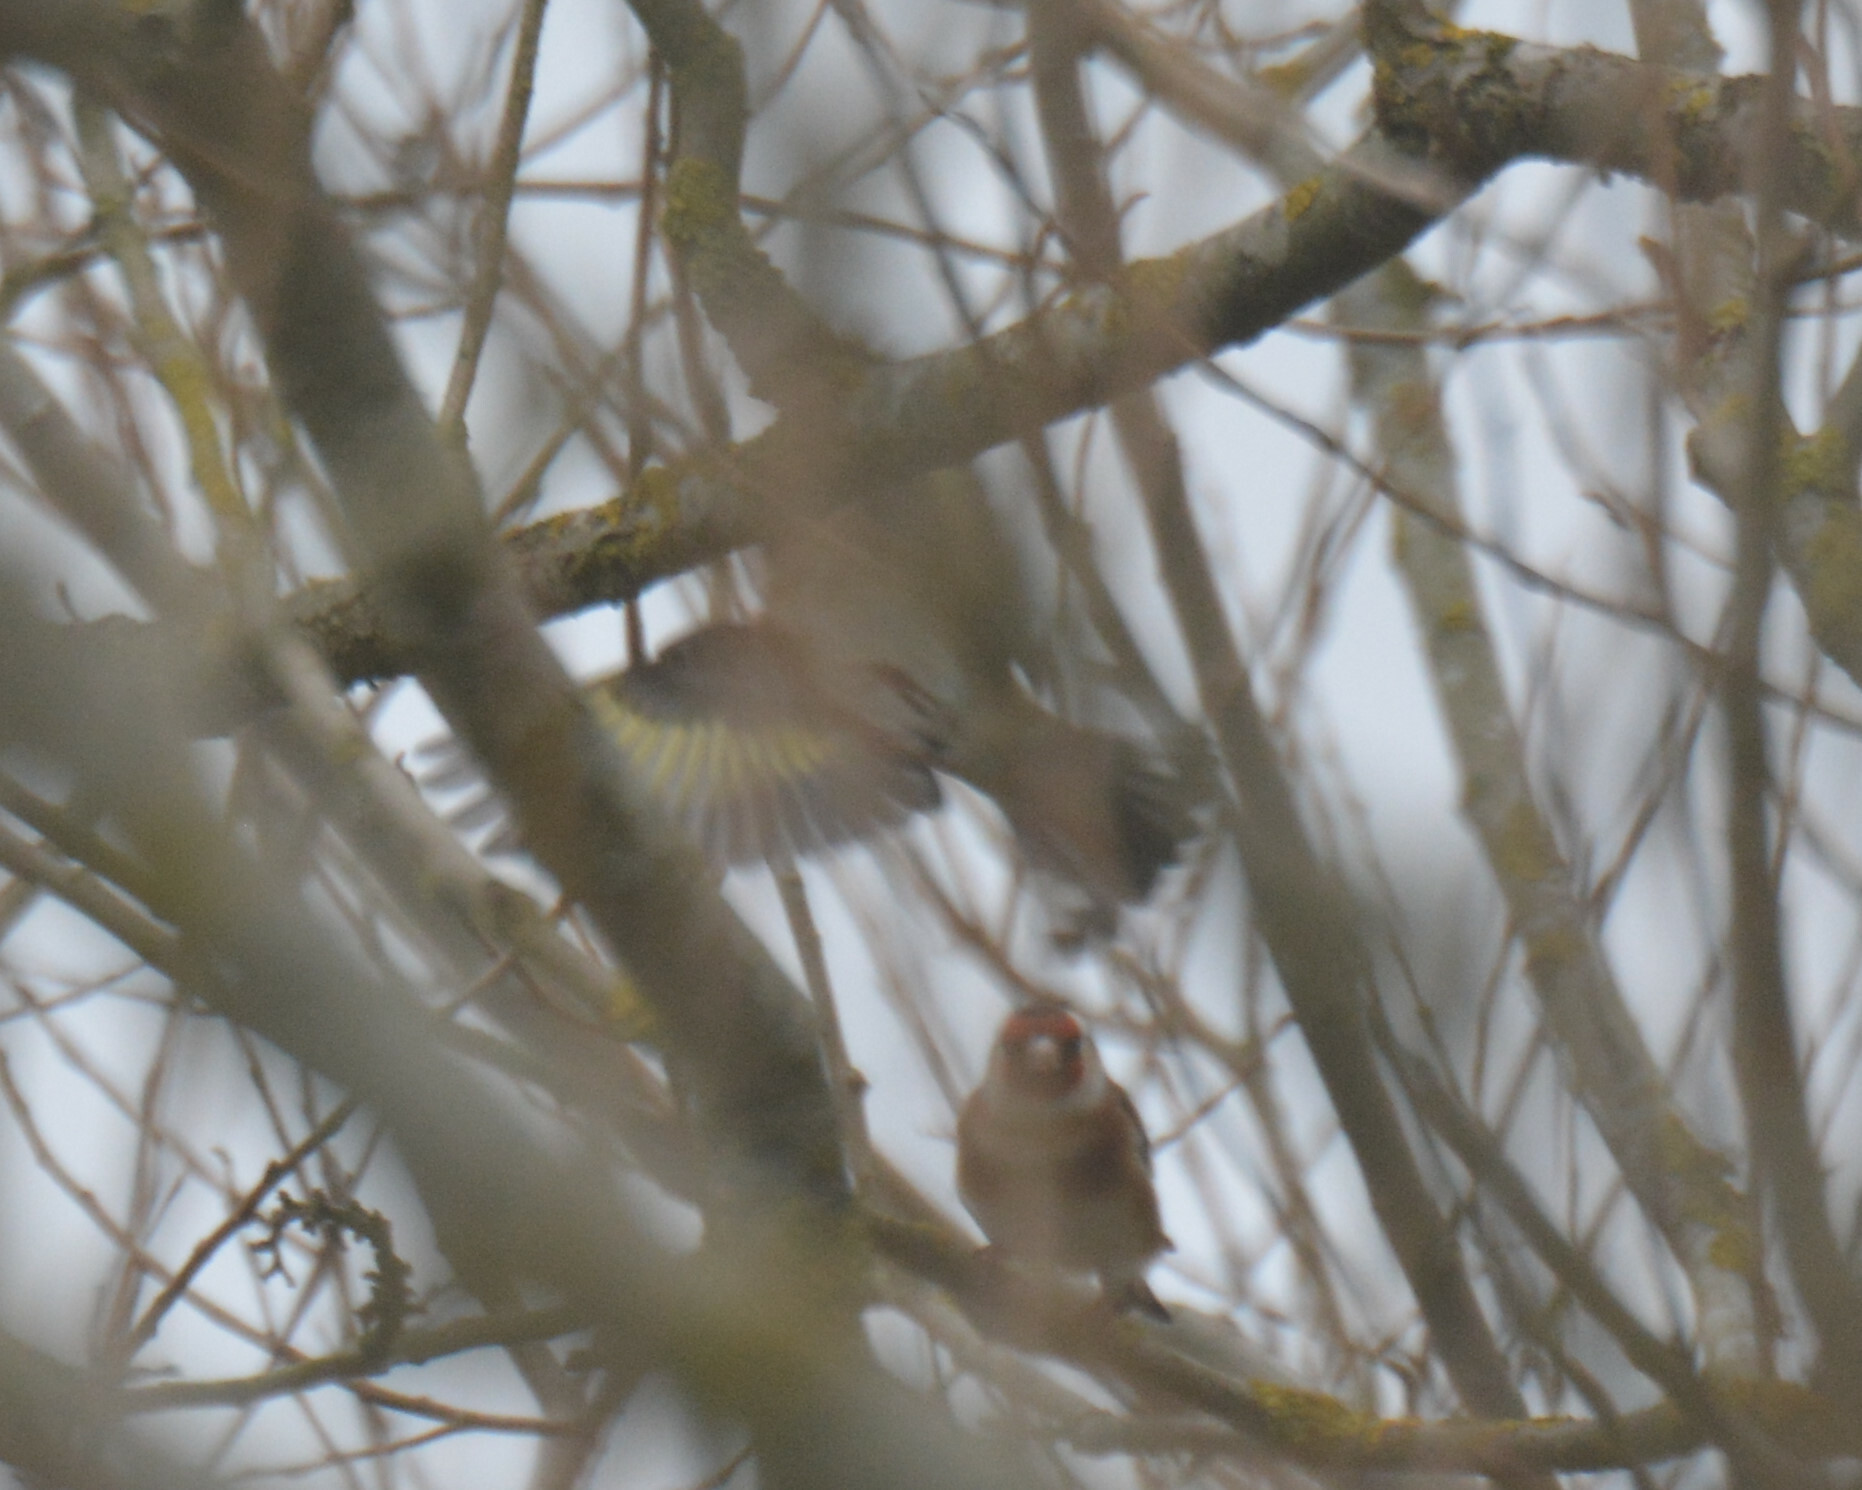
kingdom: Animalia
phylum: Chordata
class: Aves
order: Passeriformes
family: Fringillidae
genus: Carduelis
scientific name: Carduelis carduelis
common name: European goldfinch
